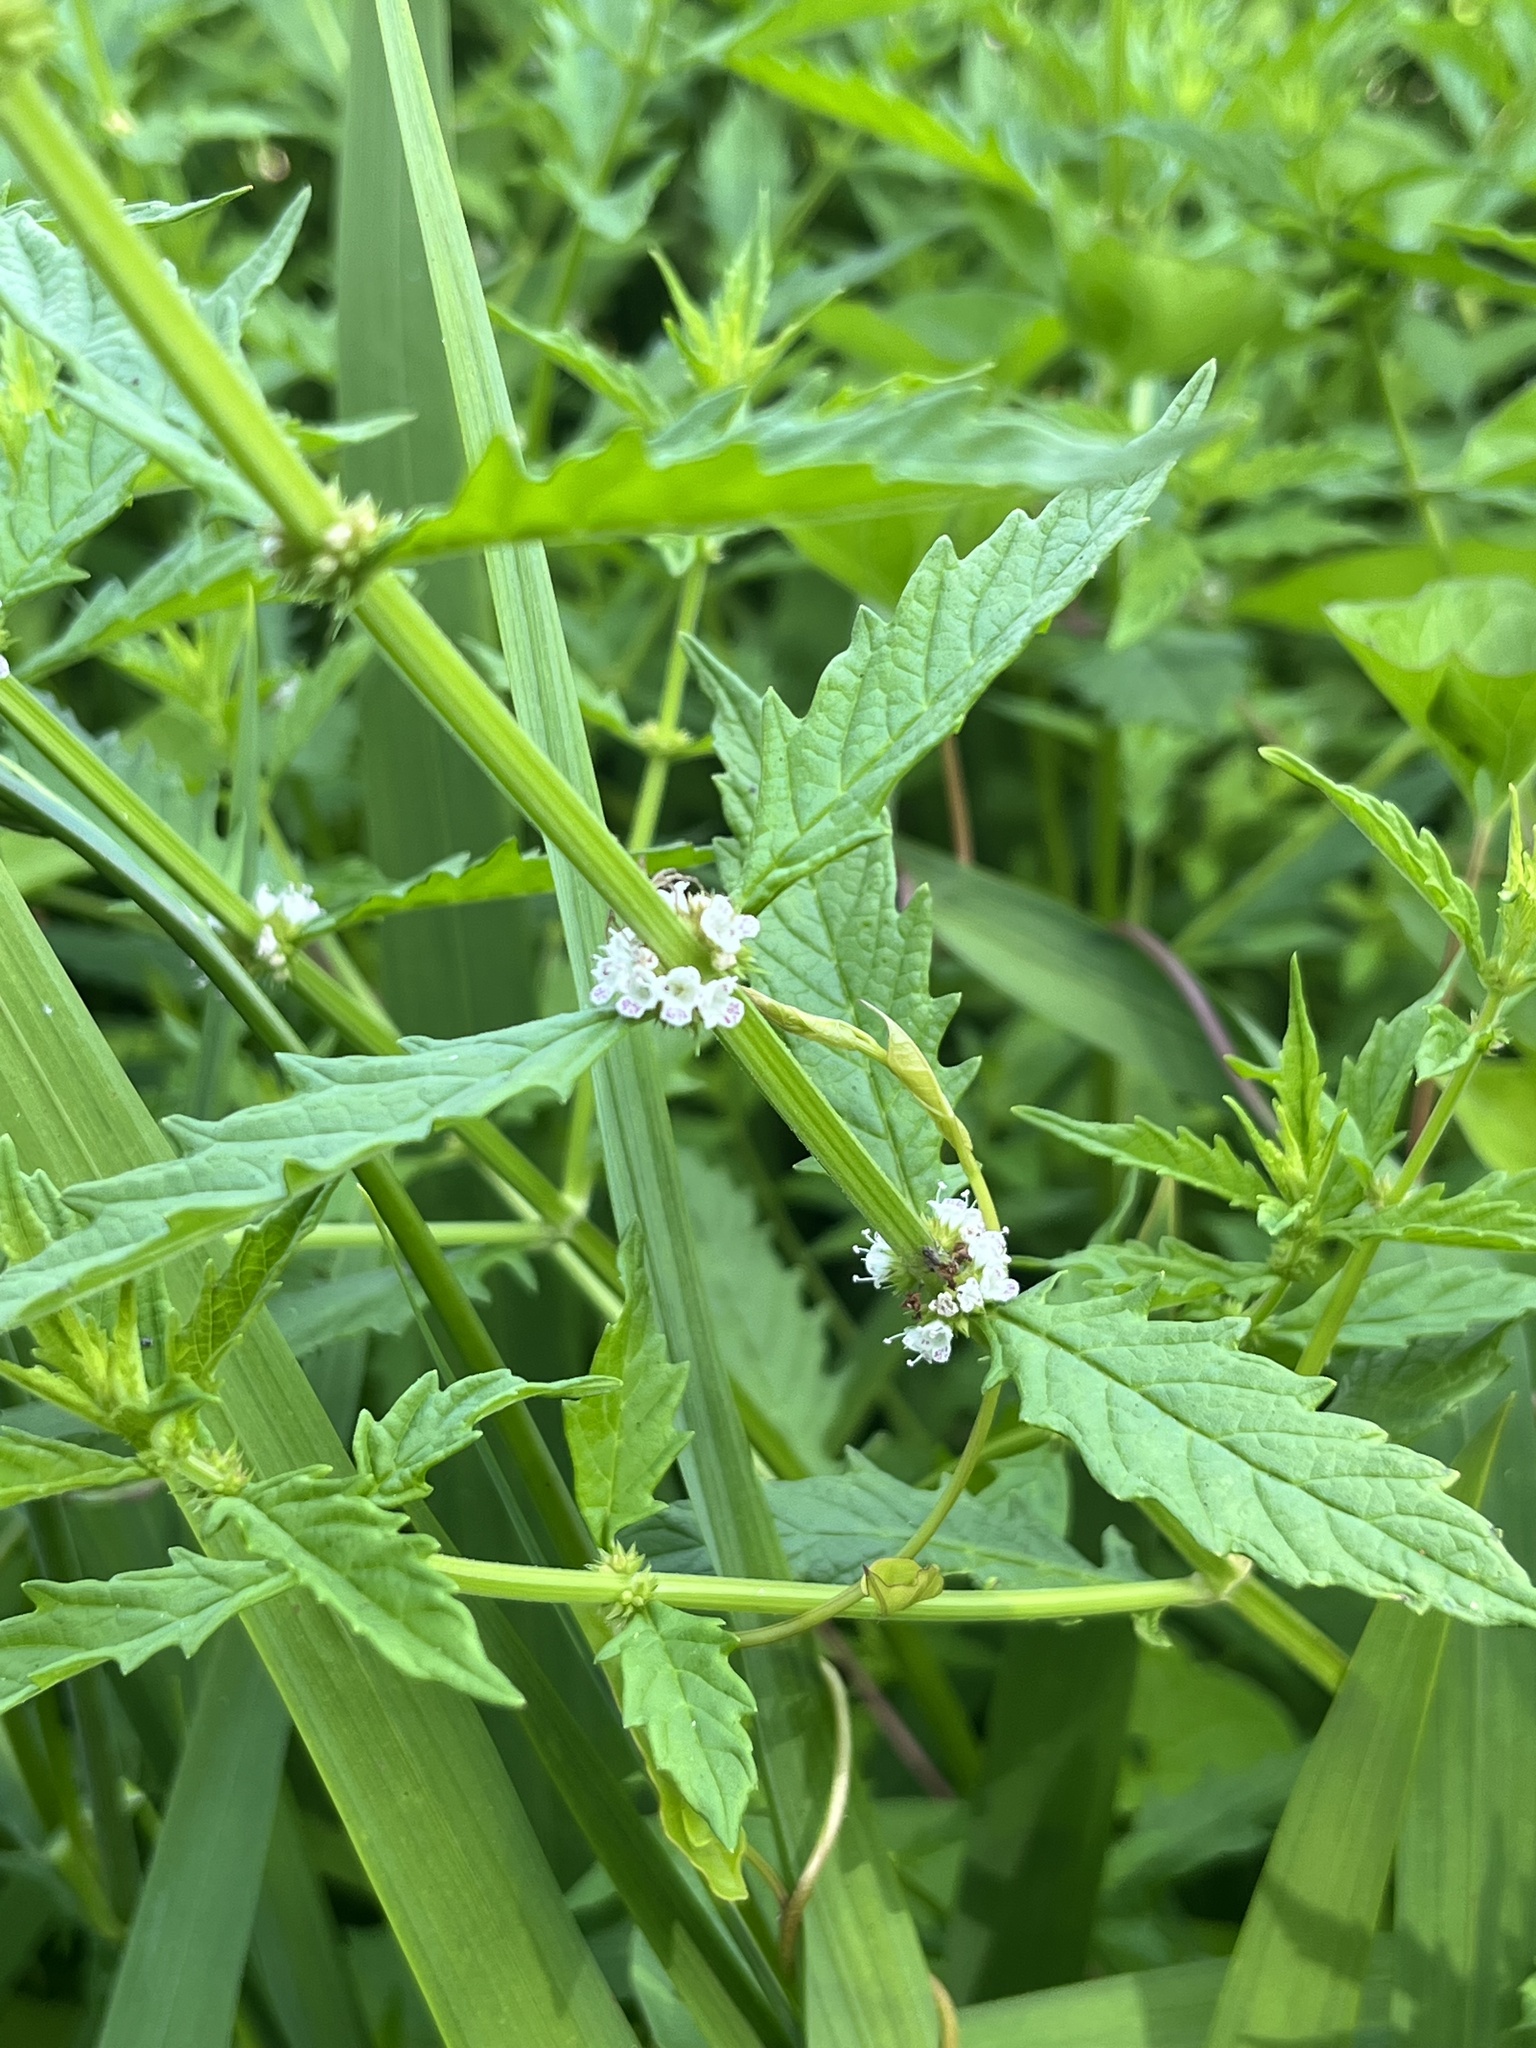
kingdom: Plantae
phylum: Tracheophyta
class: Magnoliopsida
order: Lamiales
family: Lamiaceae
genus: Lycopus
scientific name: Lycopus europaeus
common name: European bugleweed
